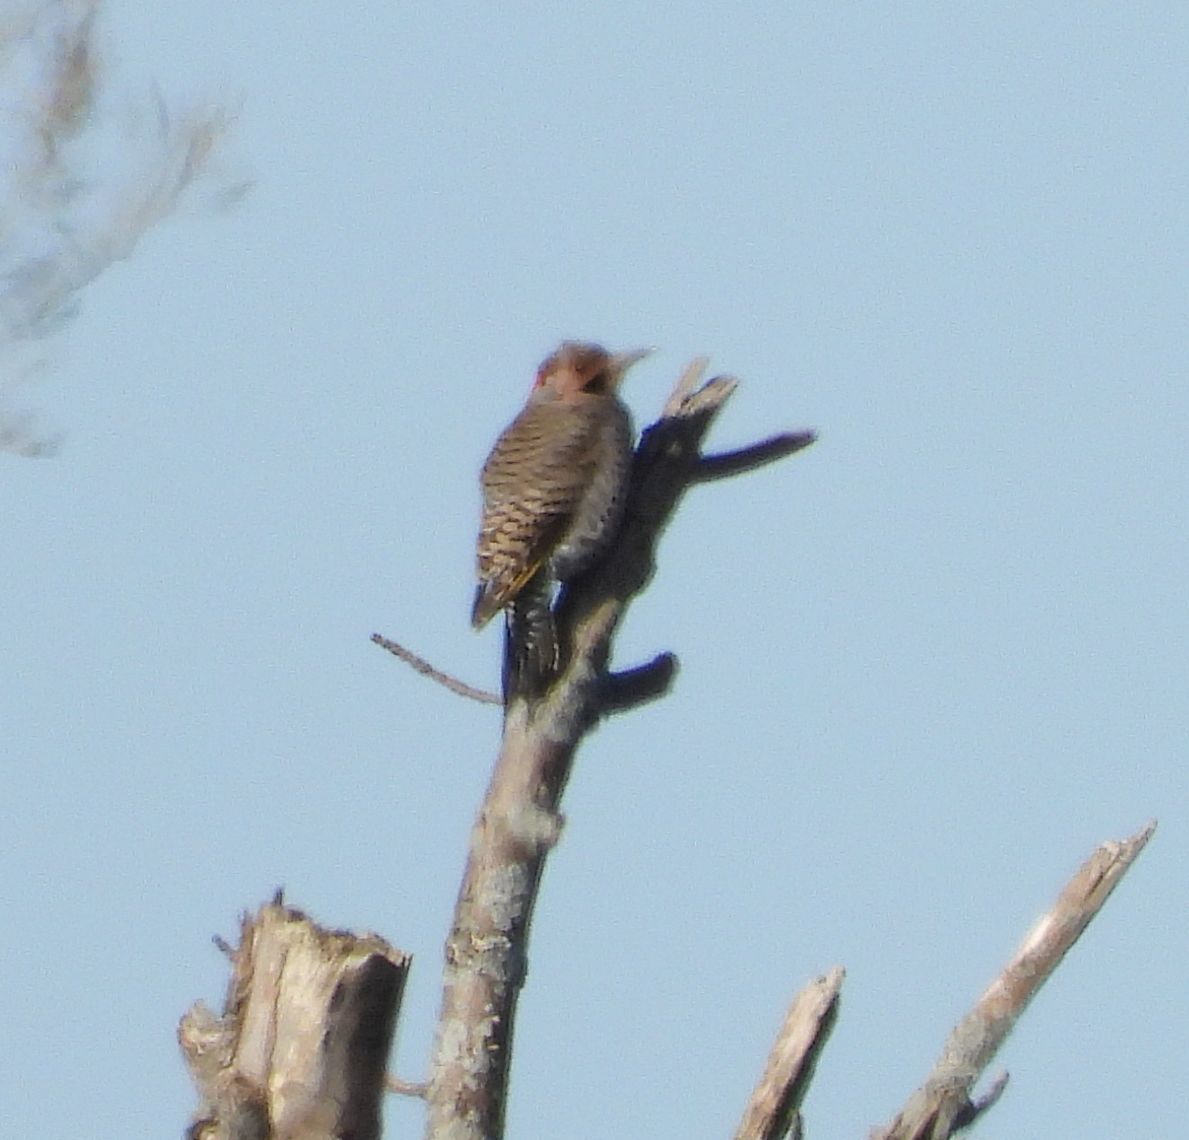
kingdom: Animalia
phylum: Chordata
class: Aves
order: Piciformes
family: Picidae
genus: Colaptes
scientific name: Colaptes auratus
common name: Northern flicker
